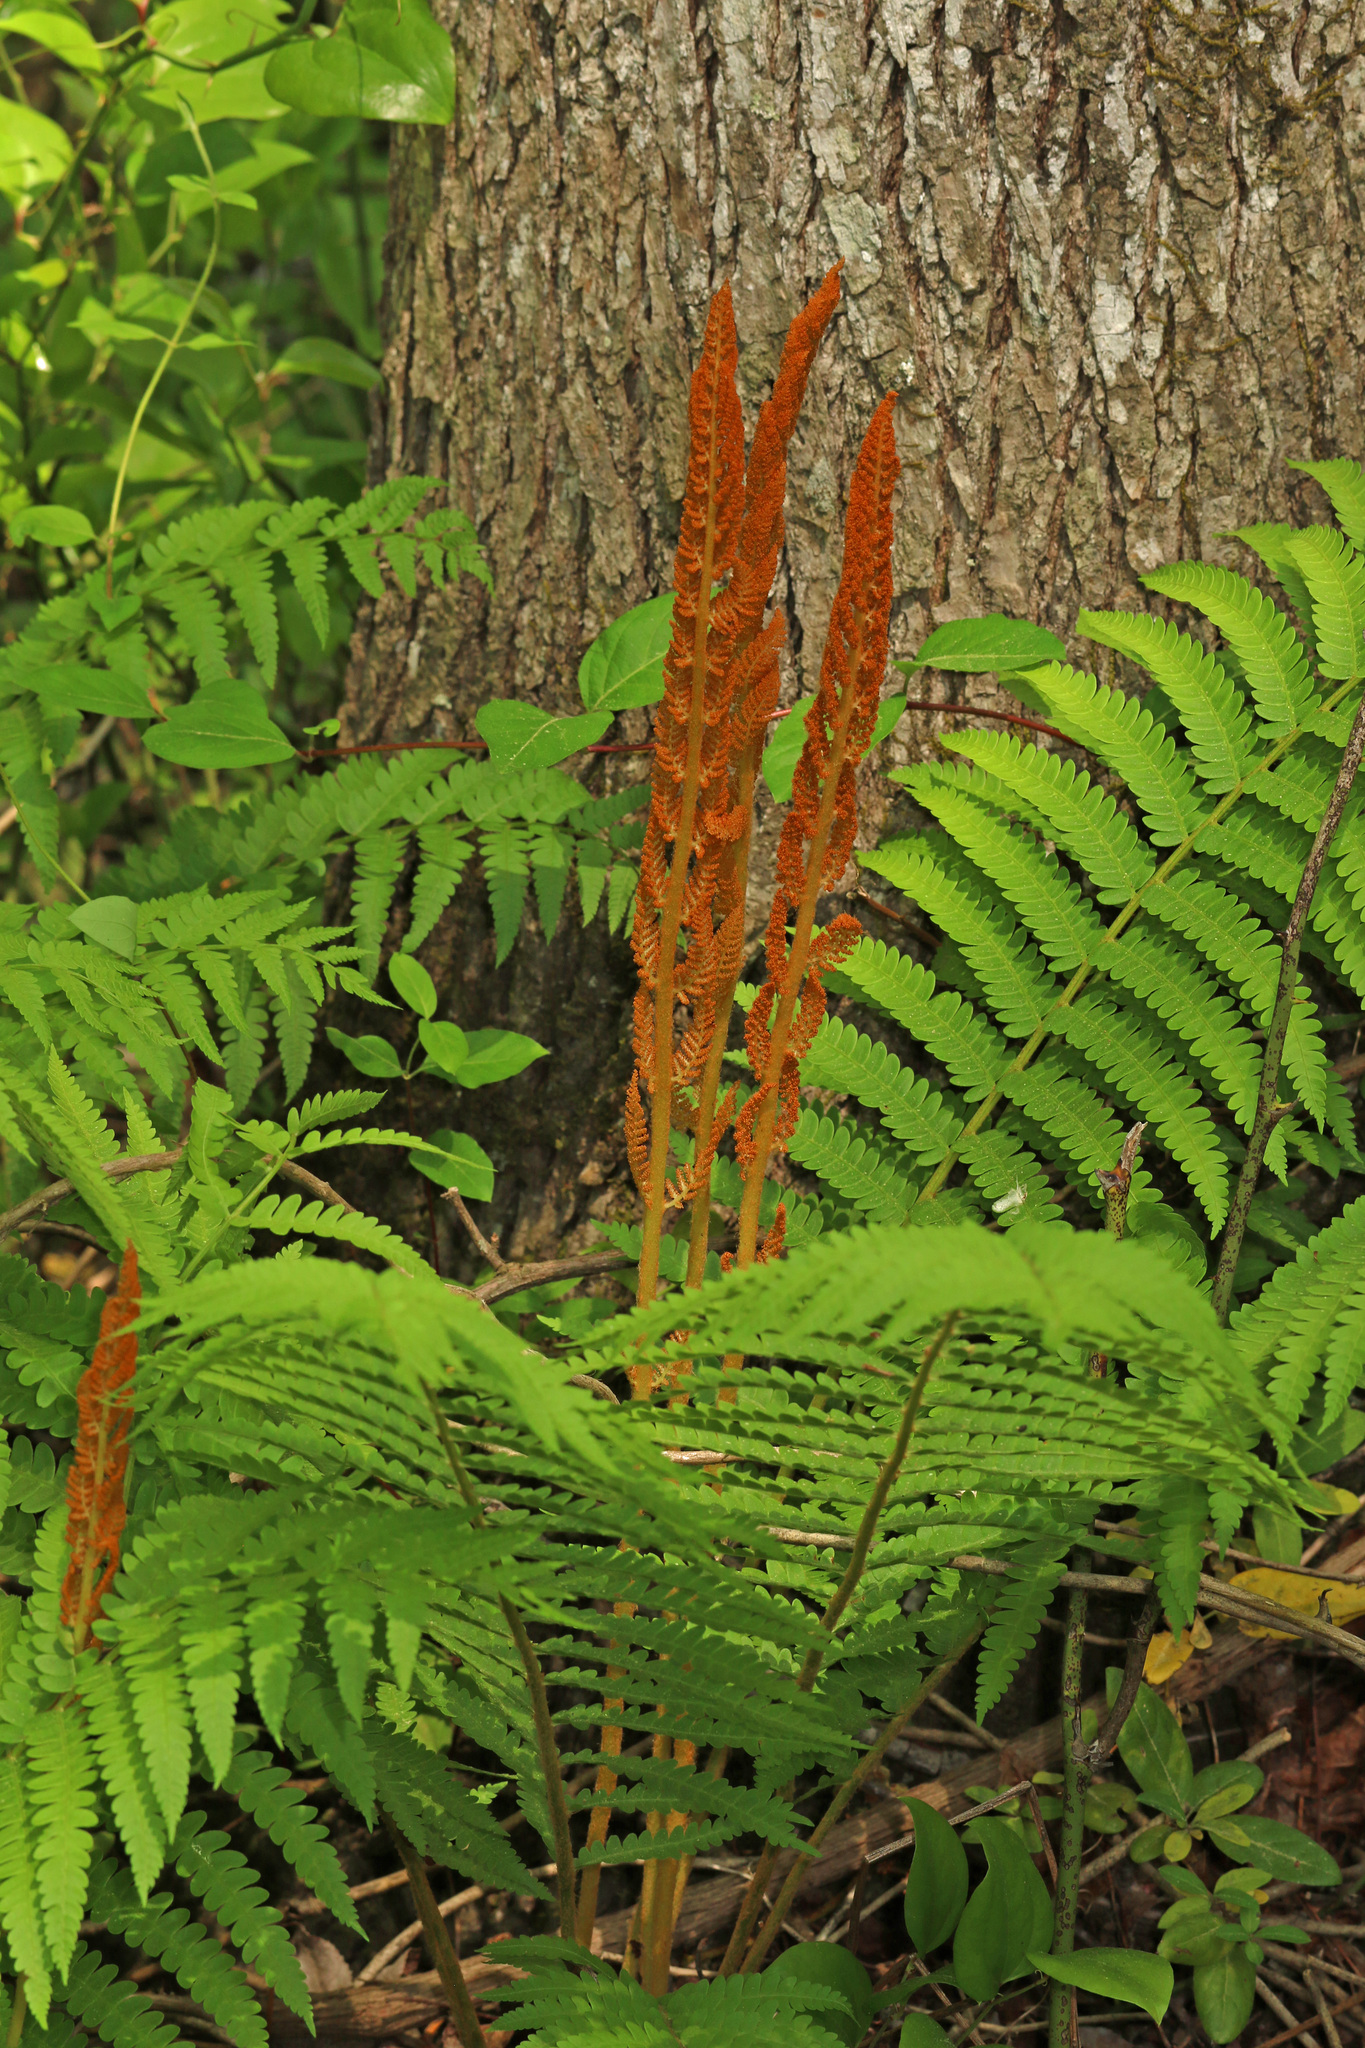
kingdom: Plantae
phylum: Tracheophyta
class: Polypodiopsida
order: Osmundales
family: Osmundaceae
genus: Osmundastrum
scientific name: Osmundastrum cinnamomeum
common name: Cinnamon fern
